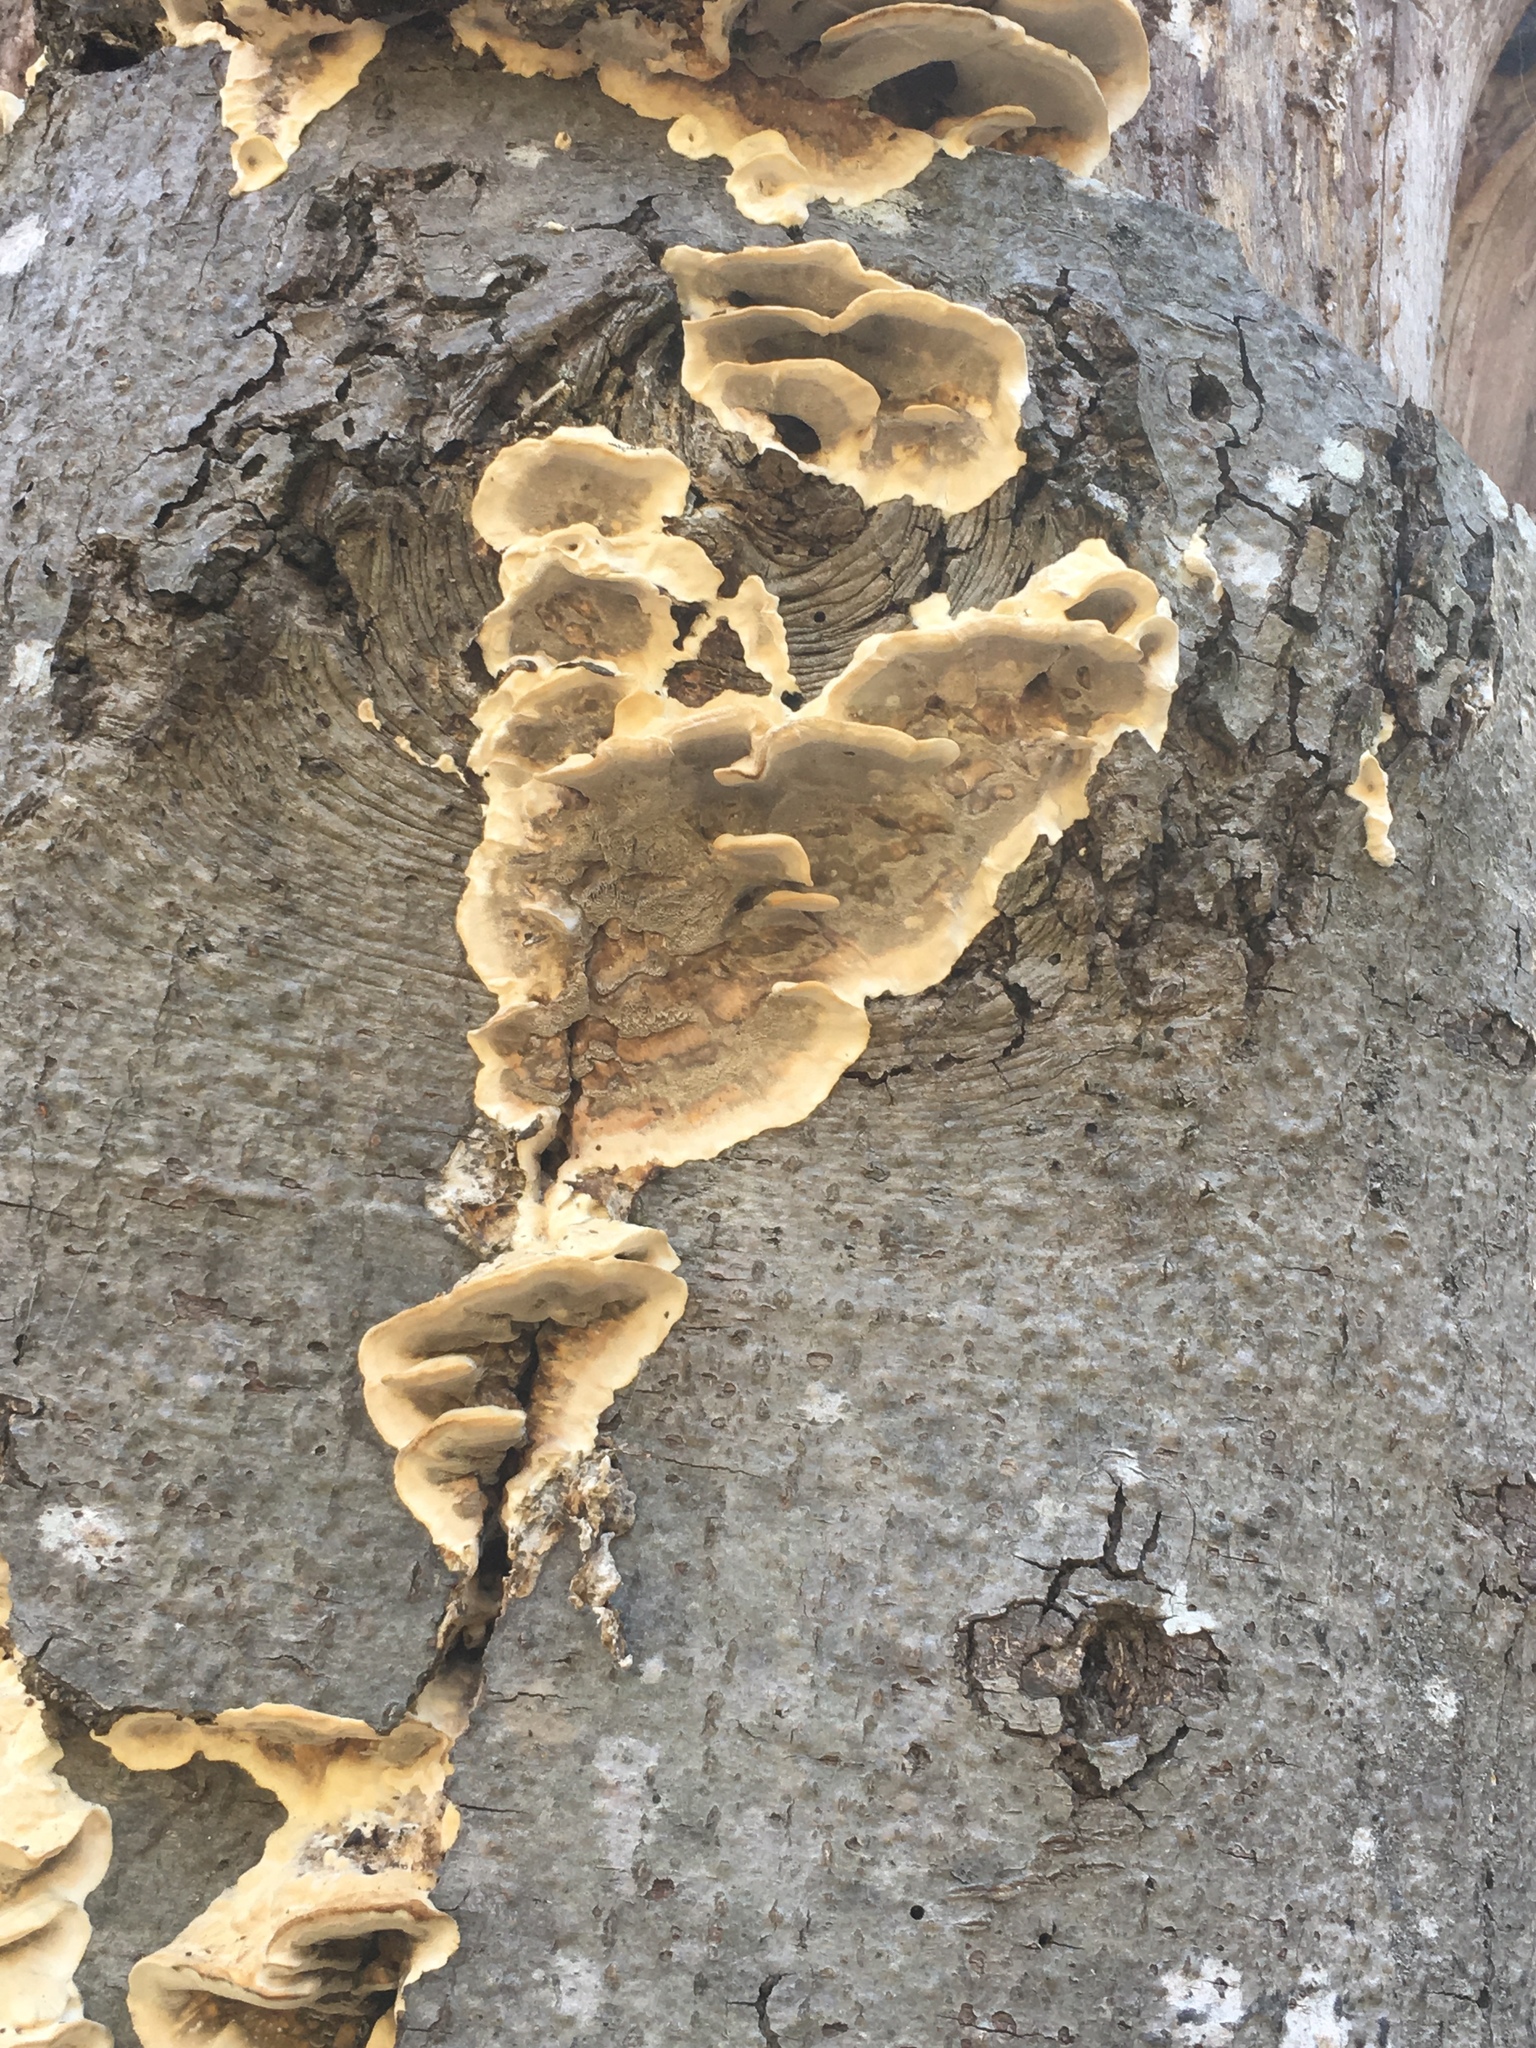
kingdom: Fungi
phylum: Basidiomycota
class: Agaricomycetes
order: Polyporales
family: Phanerochaetaceae
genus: Bjerkandera
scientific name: Bjerkandera adusta
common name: Smoky bracket
